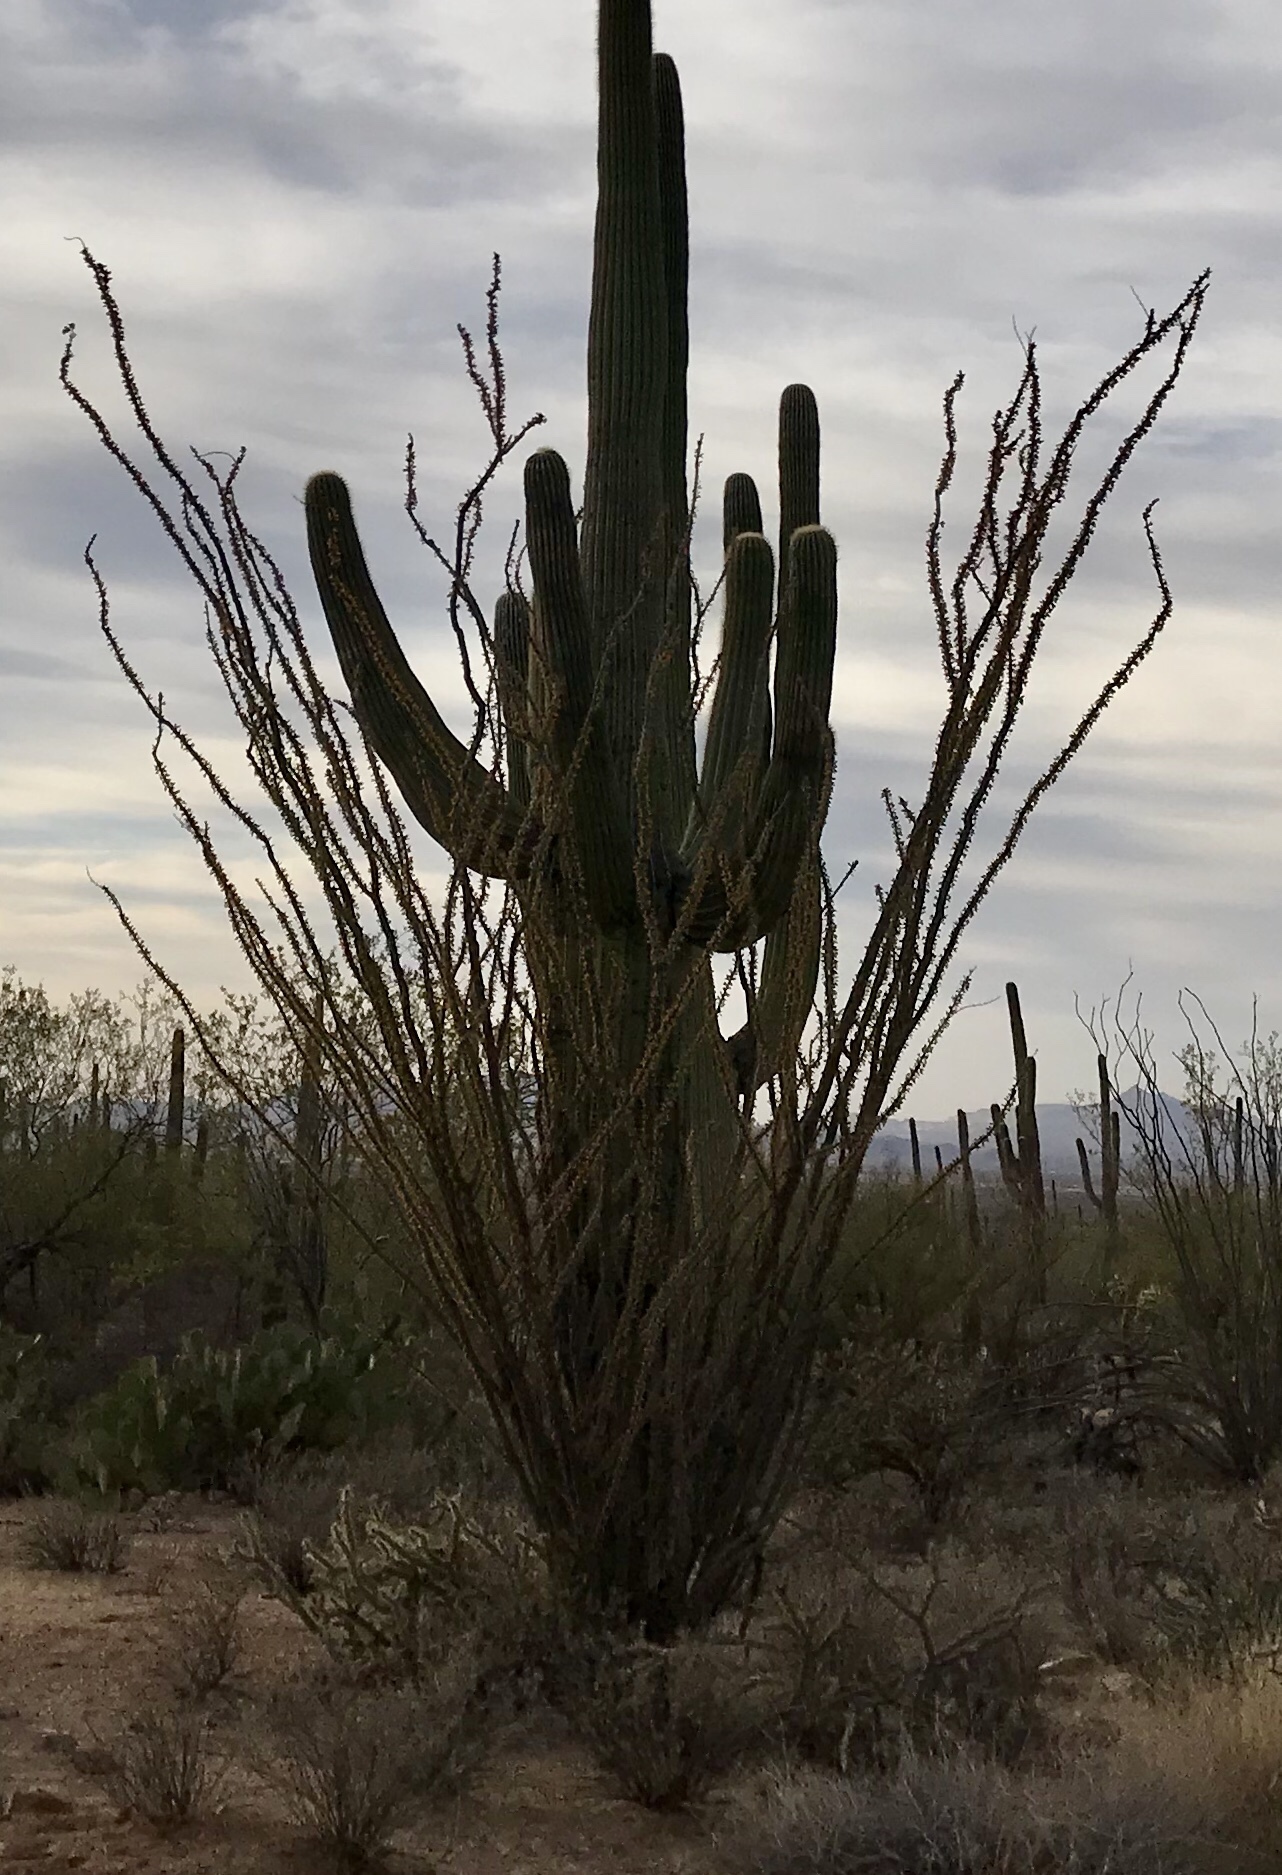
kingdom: Plantae
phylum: Tracheophyta
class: Magnoliopsida
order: Ericales
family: Fouquieriaceae
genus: Fouquieria
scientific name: Fouquieria splendens
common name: Vine-cactus
